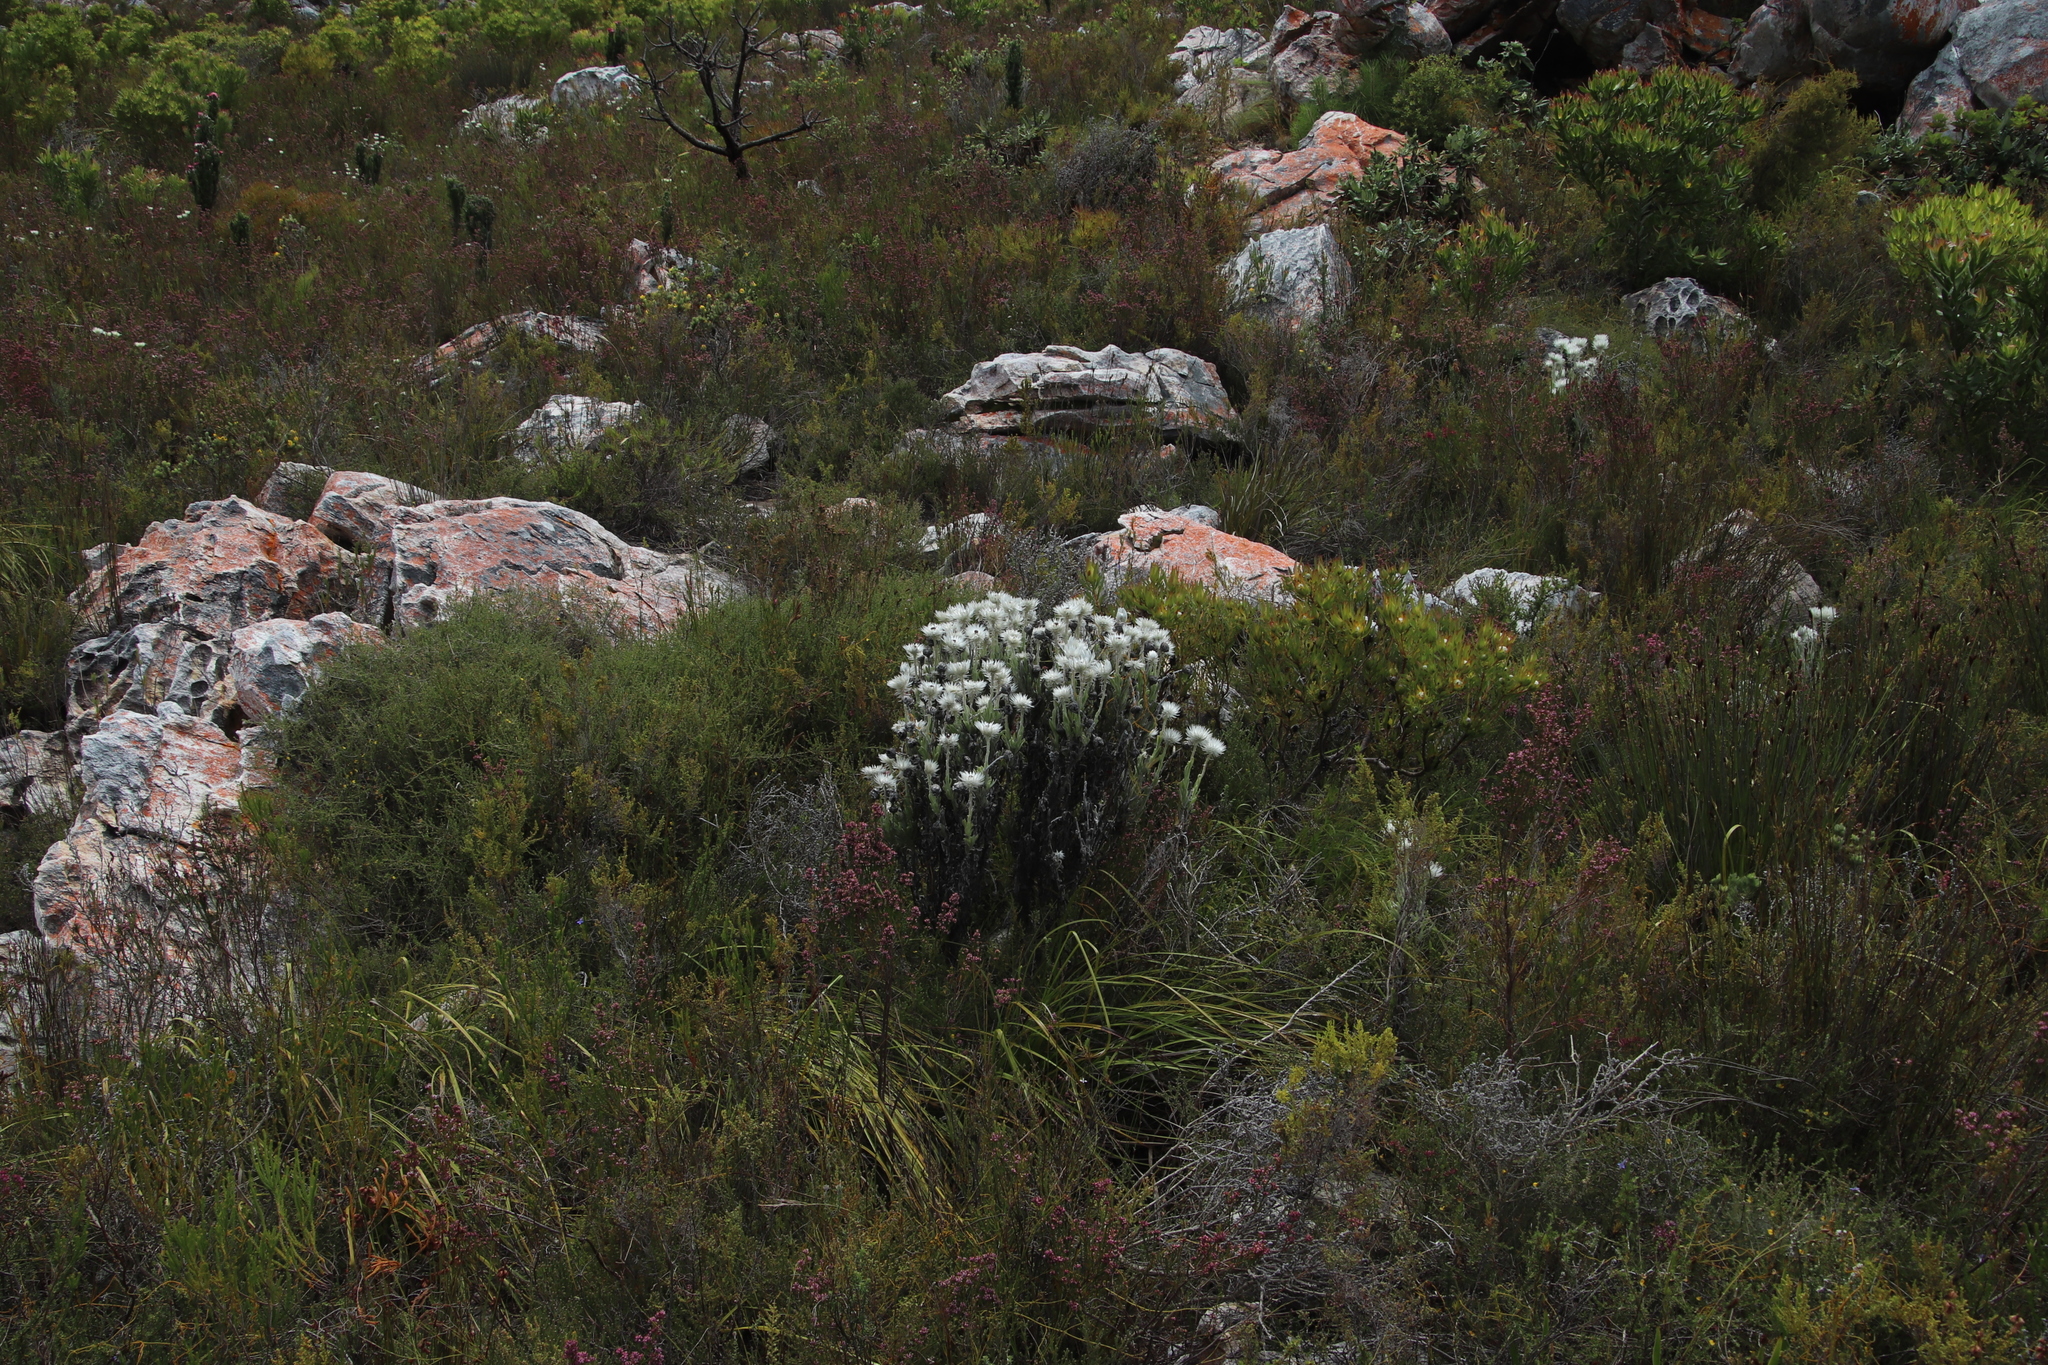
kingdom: Plantae
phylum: Tracheophyta
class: Magnoliopsida
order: Asterales
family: Asteraceae
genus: Syncarpha
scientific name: Syncarpha vestita
